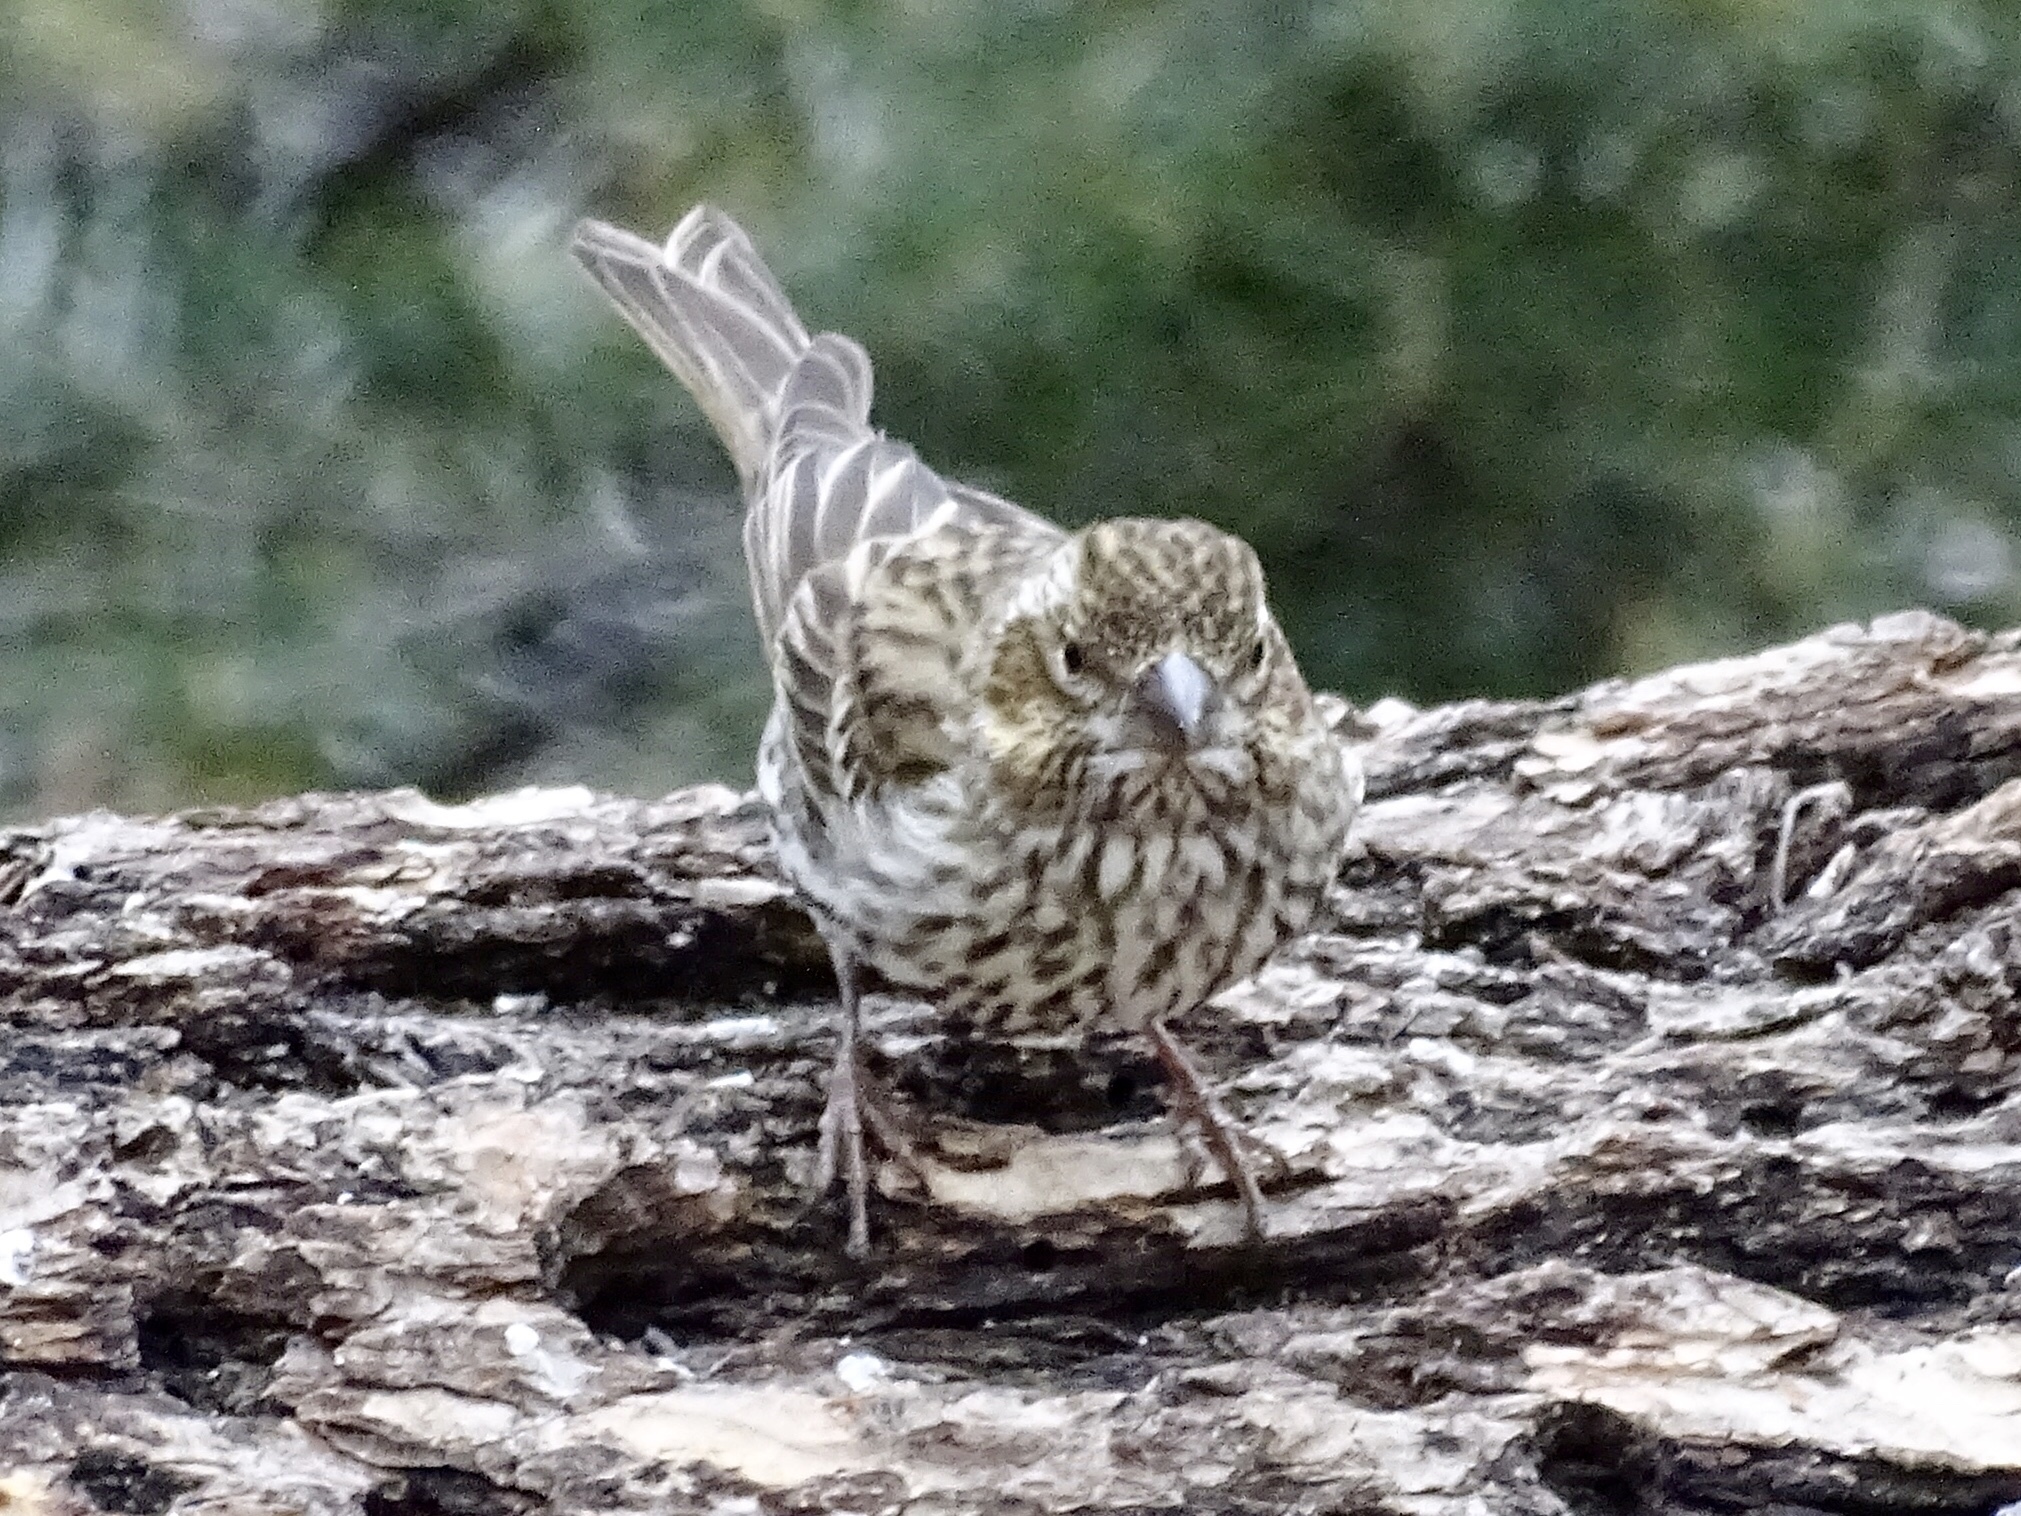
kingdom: Animalia
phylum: Chordata
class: Aves
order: Passeriformes
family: Fringillidae
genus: Haemorhous
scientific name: Haemorhous cassinii
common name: Cassin's finch
